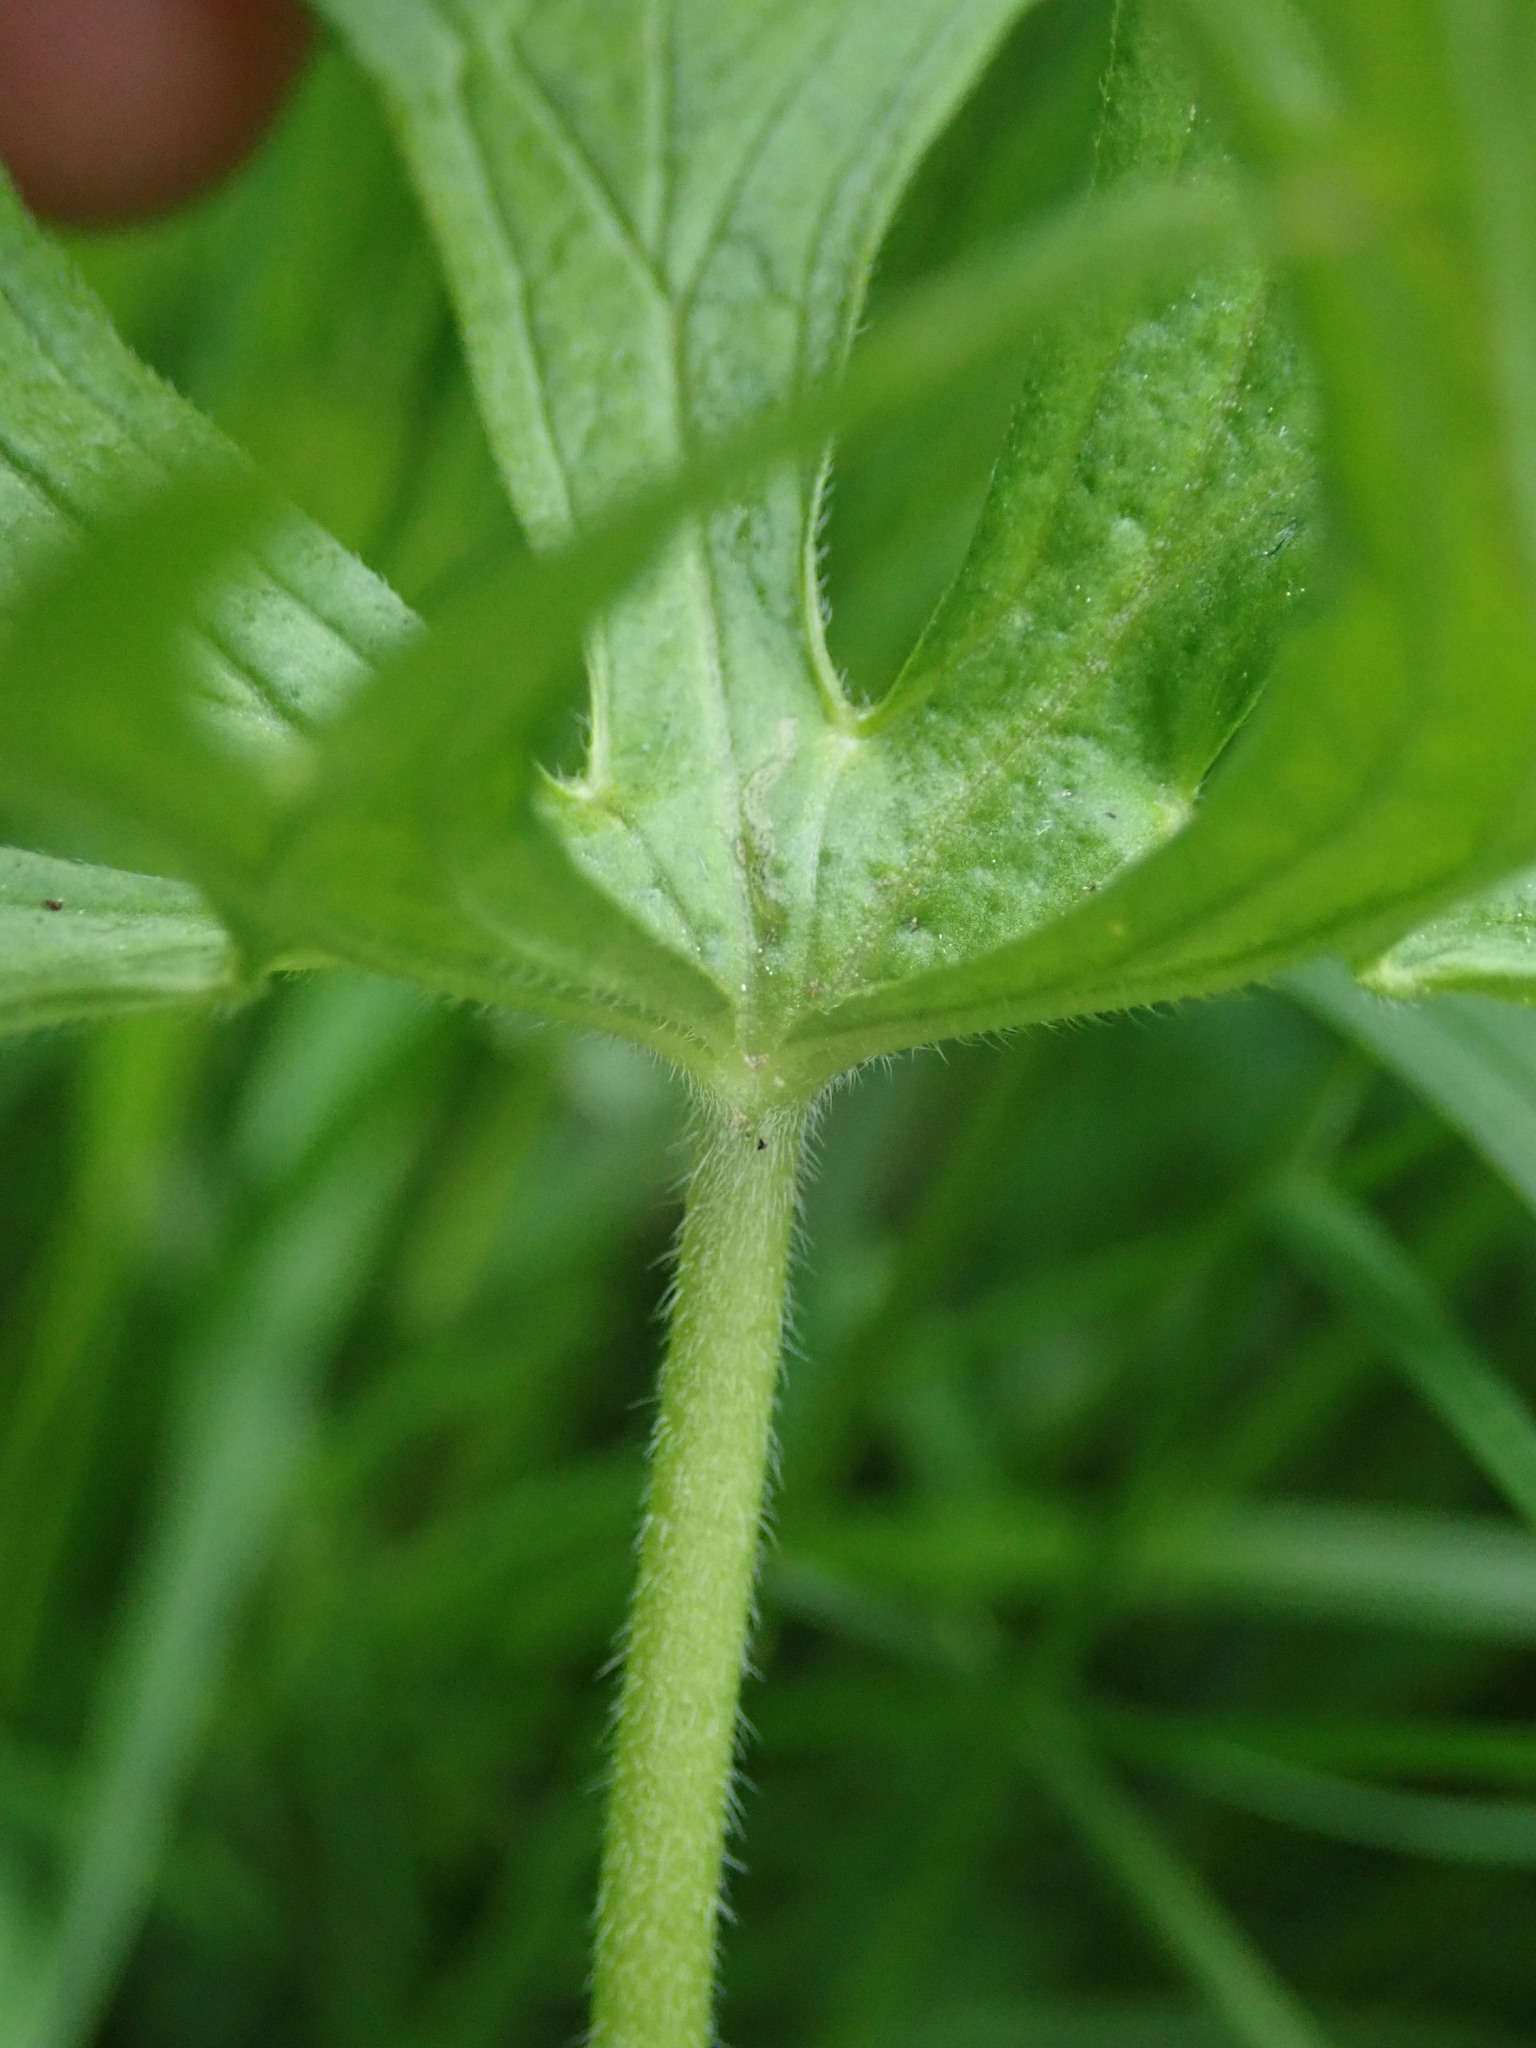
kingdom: Plantae
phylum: Tracheophyta
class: Magnoliopsida
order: Geraniales
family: Geraniaceae
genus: Geranium
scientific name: Geranium dissectum
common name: Cut-leaved crane's-bill
